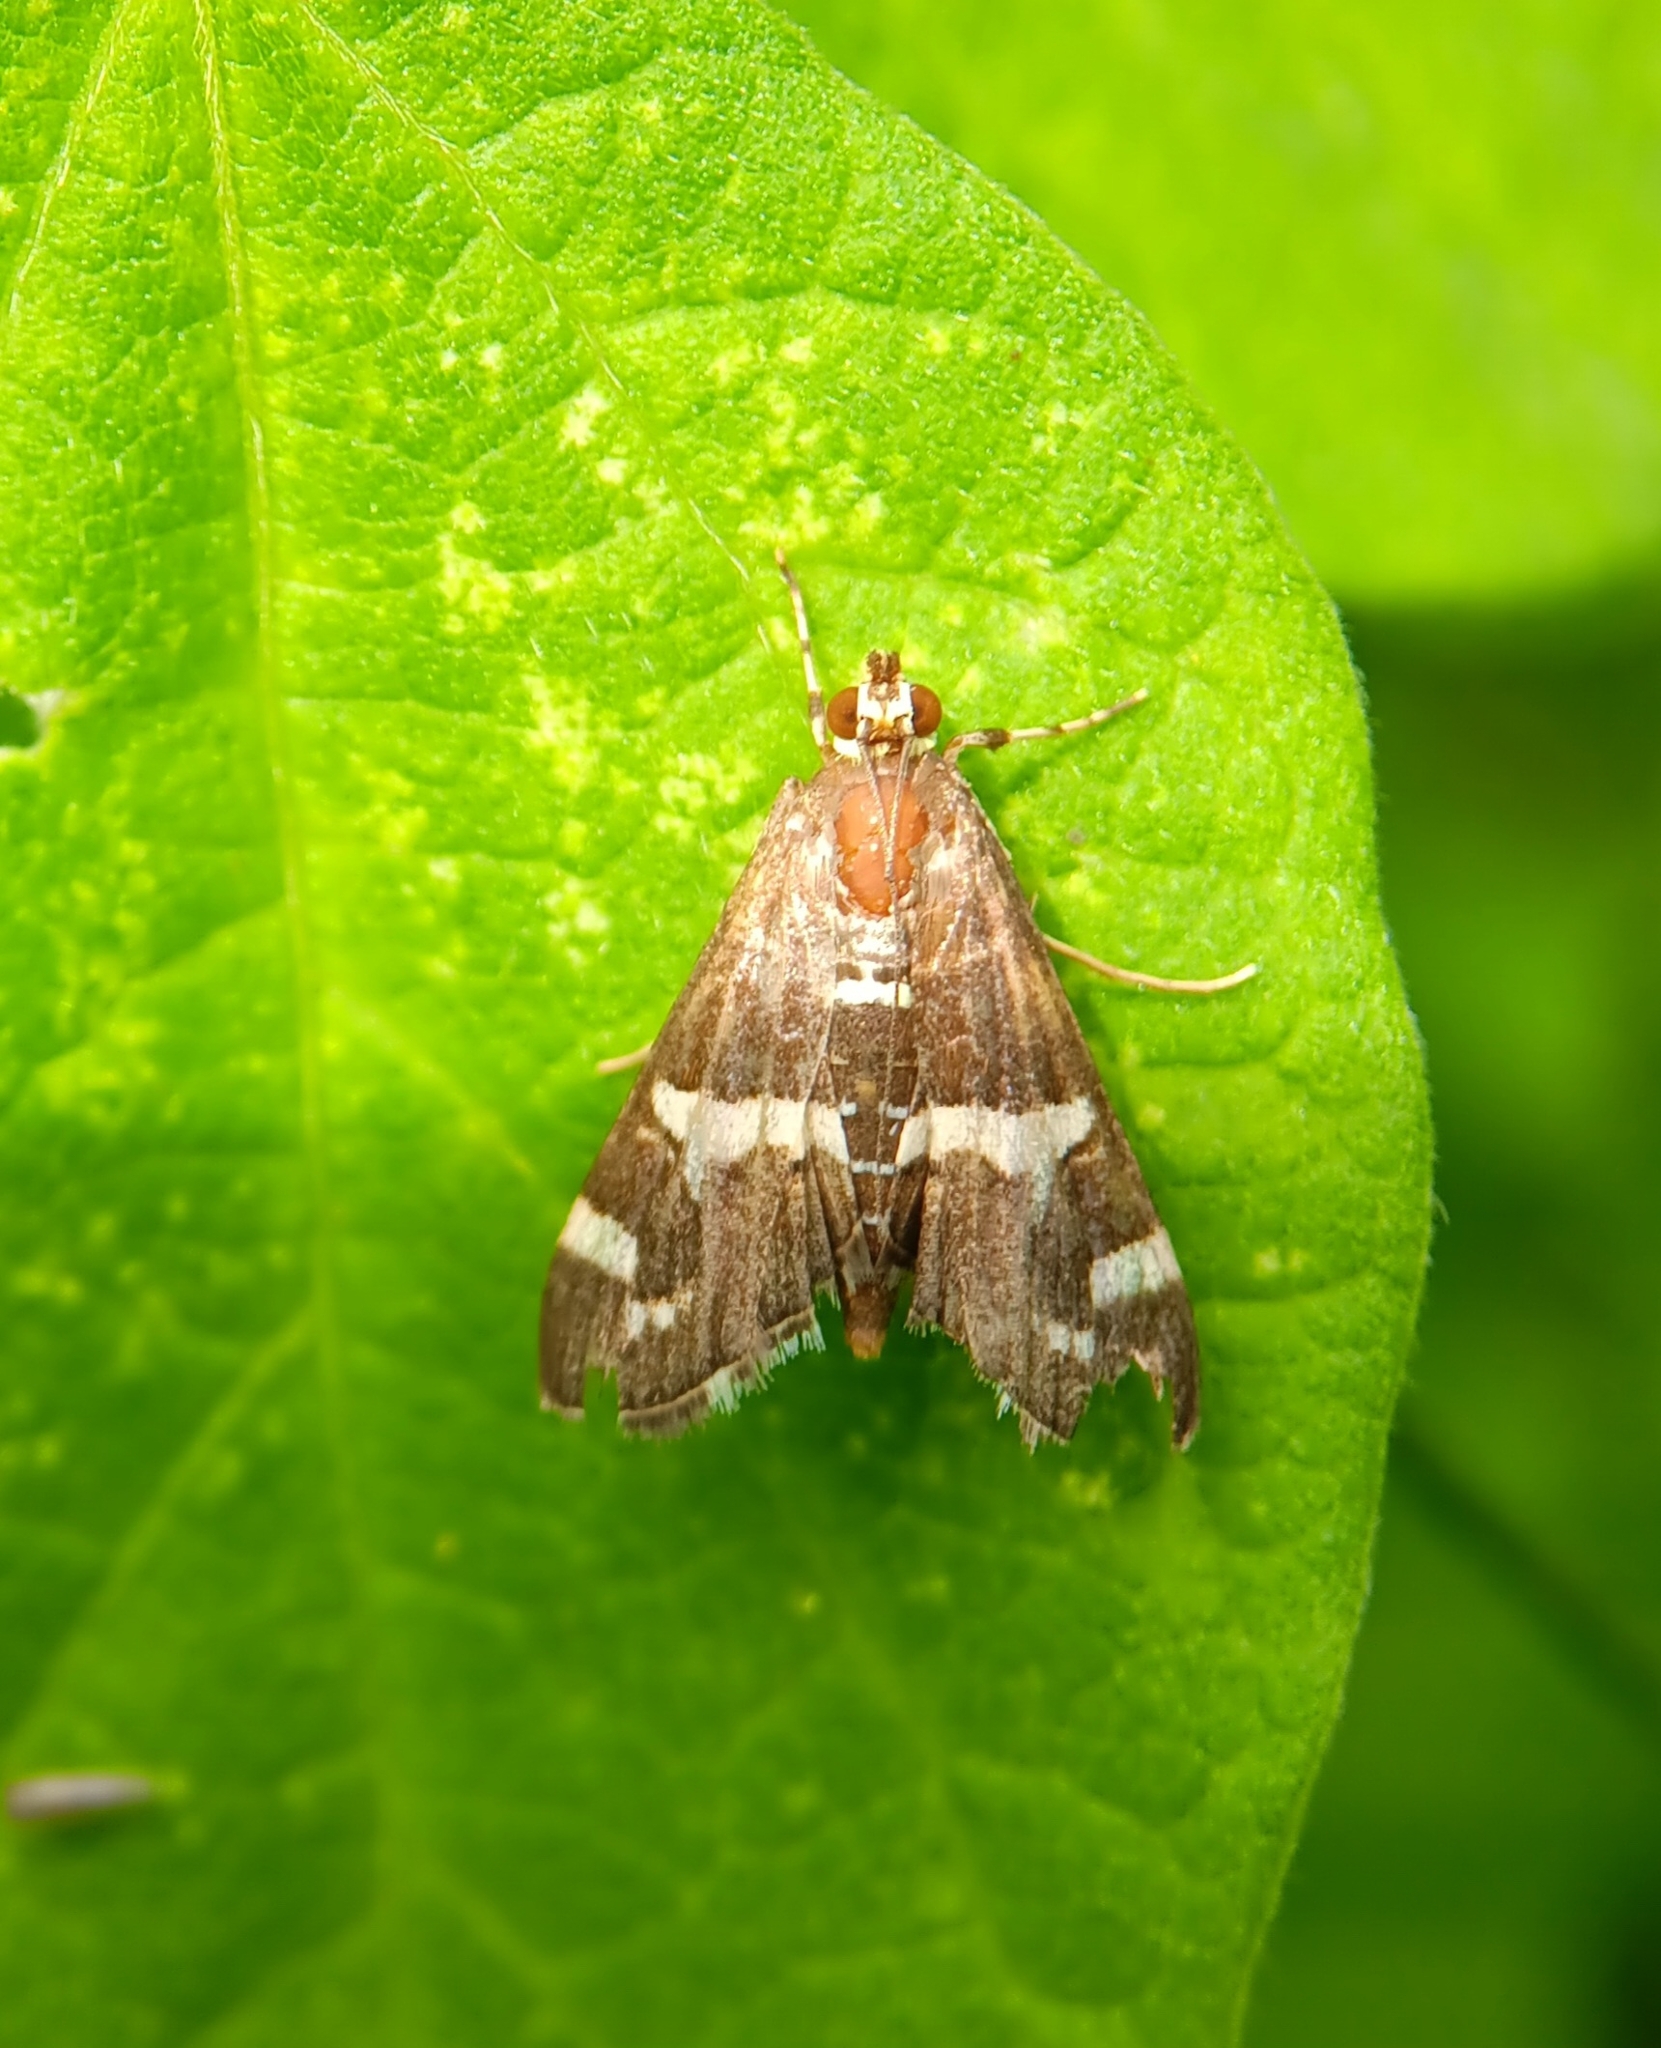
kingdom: Animalia
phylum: Arthropoda
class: Insecta
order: Lepidoptera
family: Crambidae
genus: Spoladea
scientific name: Spoladea recurvalis
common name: Beet webworm moth
